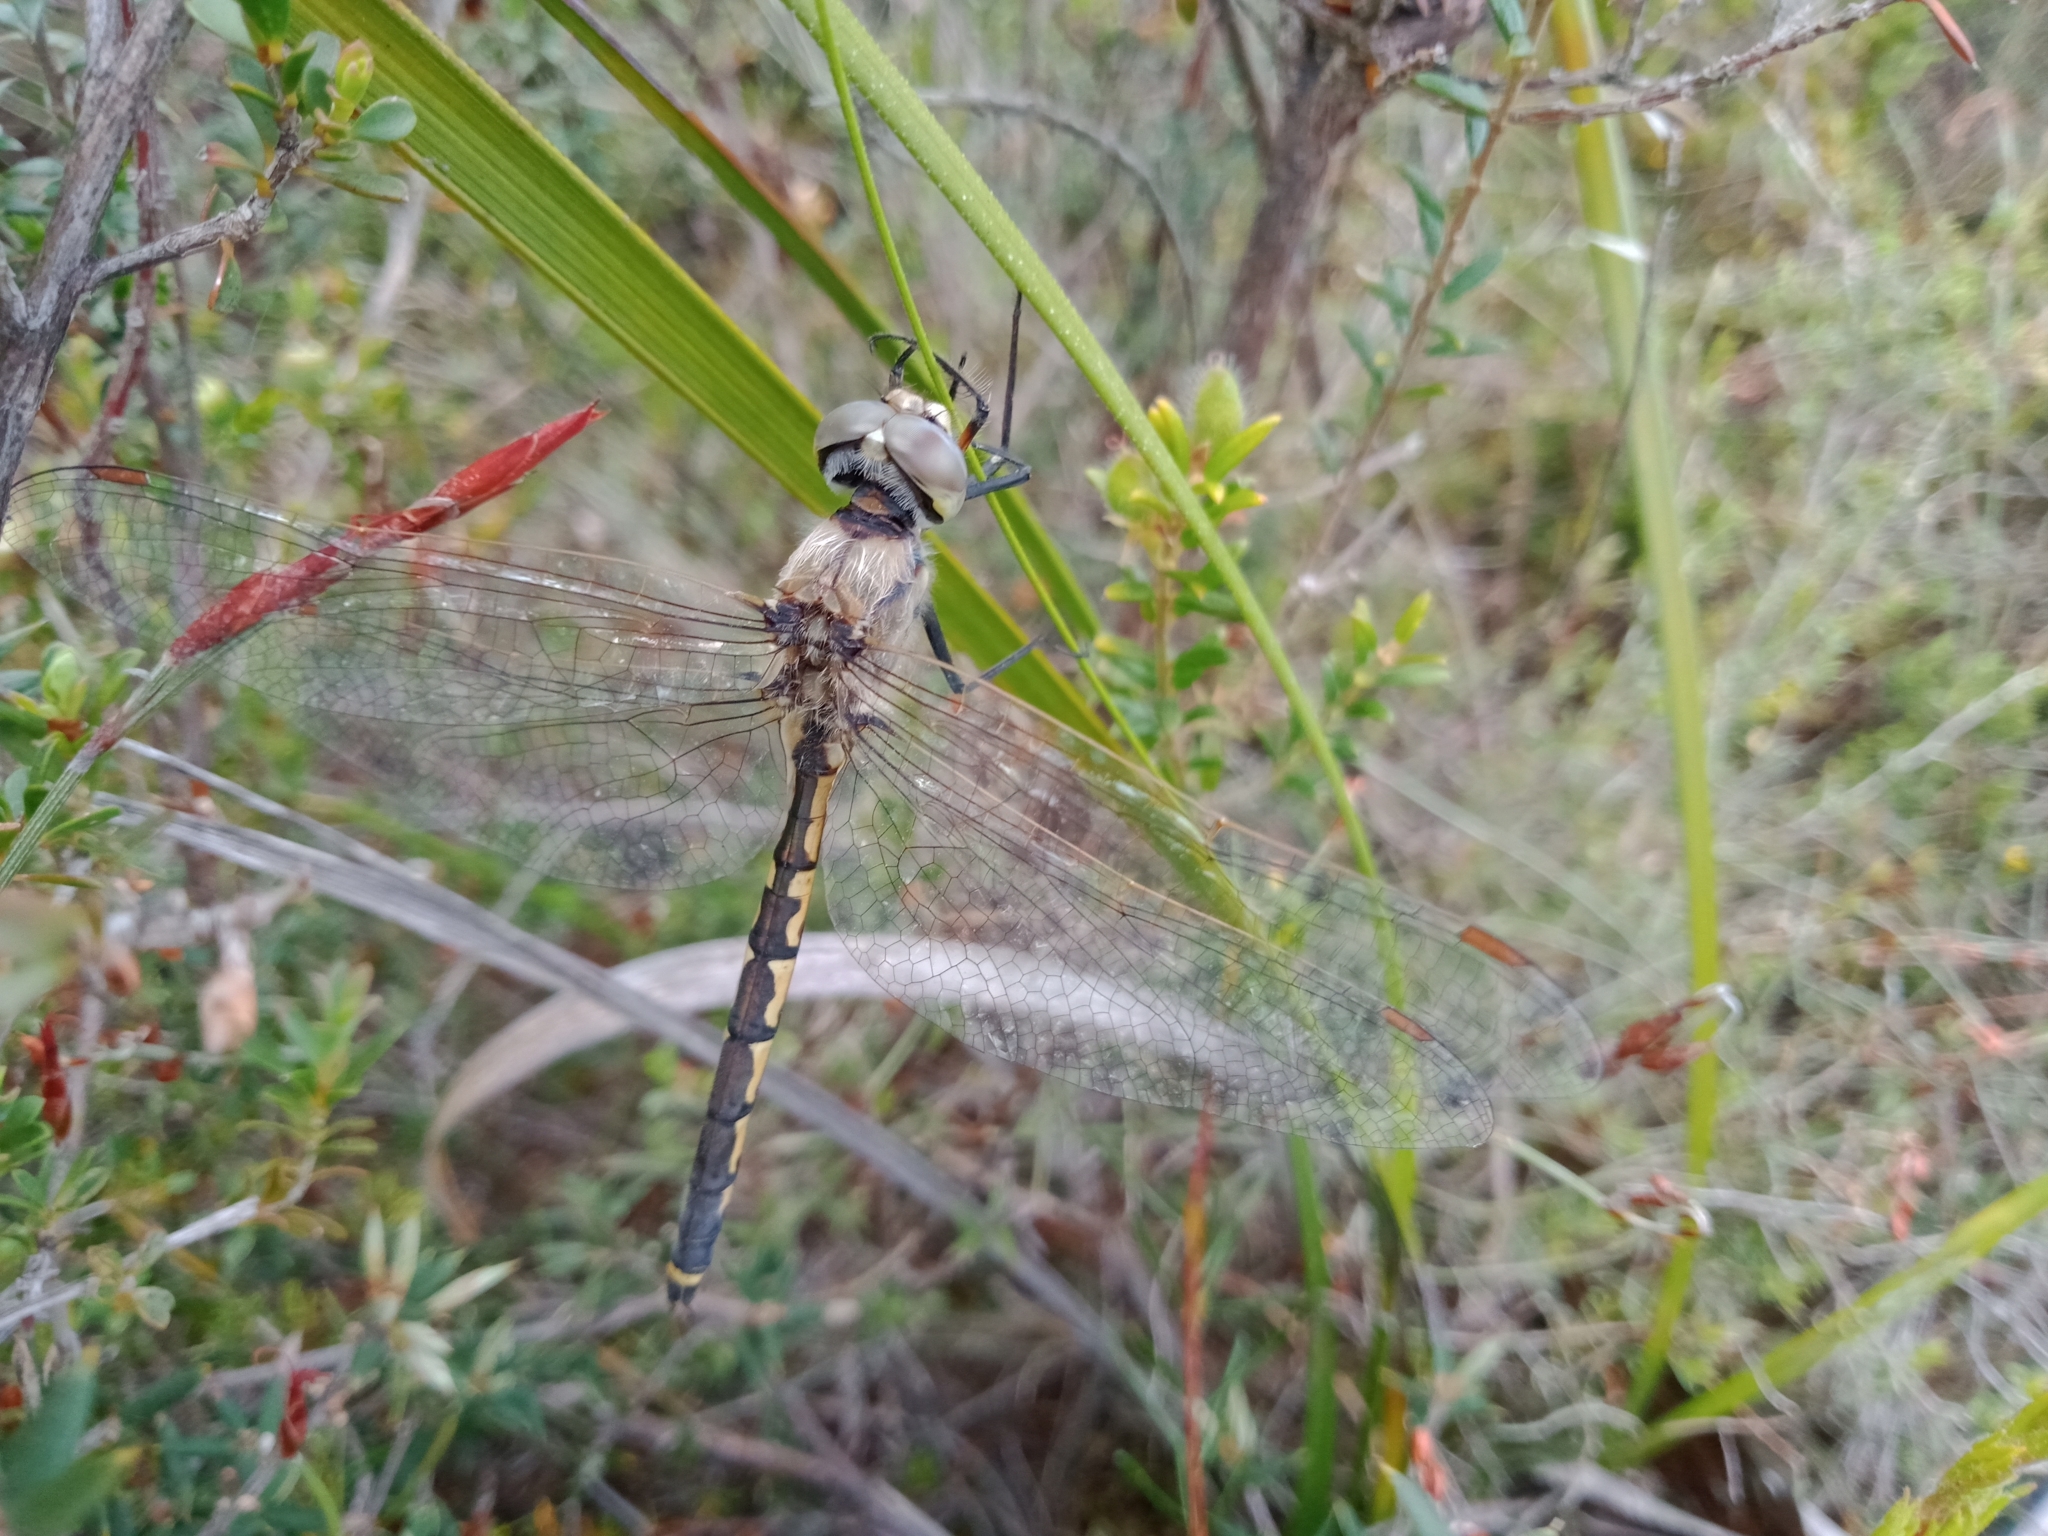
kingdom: Animalia
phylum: Arthropoda
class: Insecta
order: Odonata
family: Corduliidae
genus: Hemicordulia
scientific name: Hemicordulia tau
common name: Tau emerald
